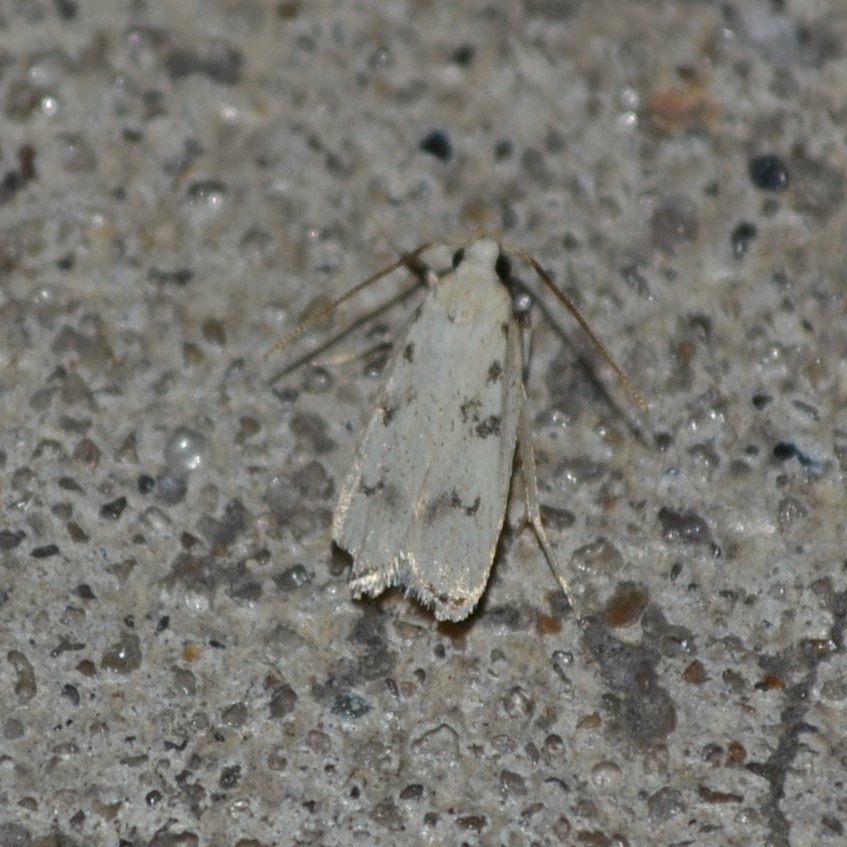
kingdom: Animalia
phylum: Arthropoda
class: Insecta
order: Lepidoptera
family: Autostichidae
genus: Glyphidocera
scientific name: Glyphidocera lactiflosella
